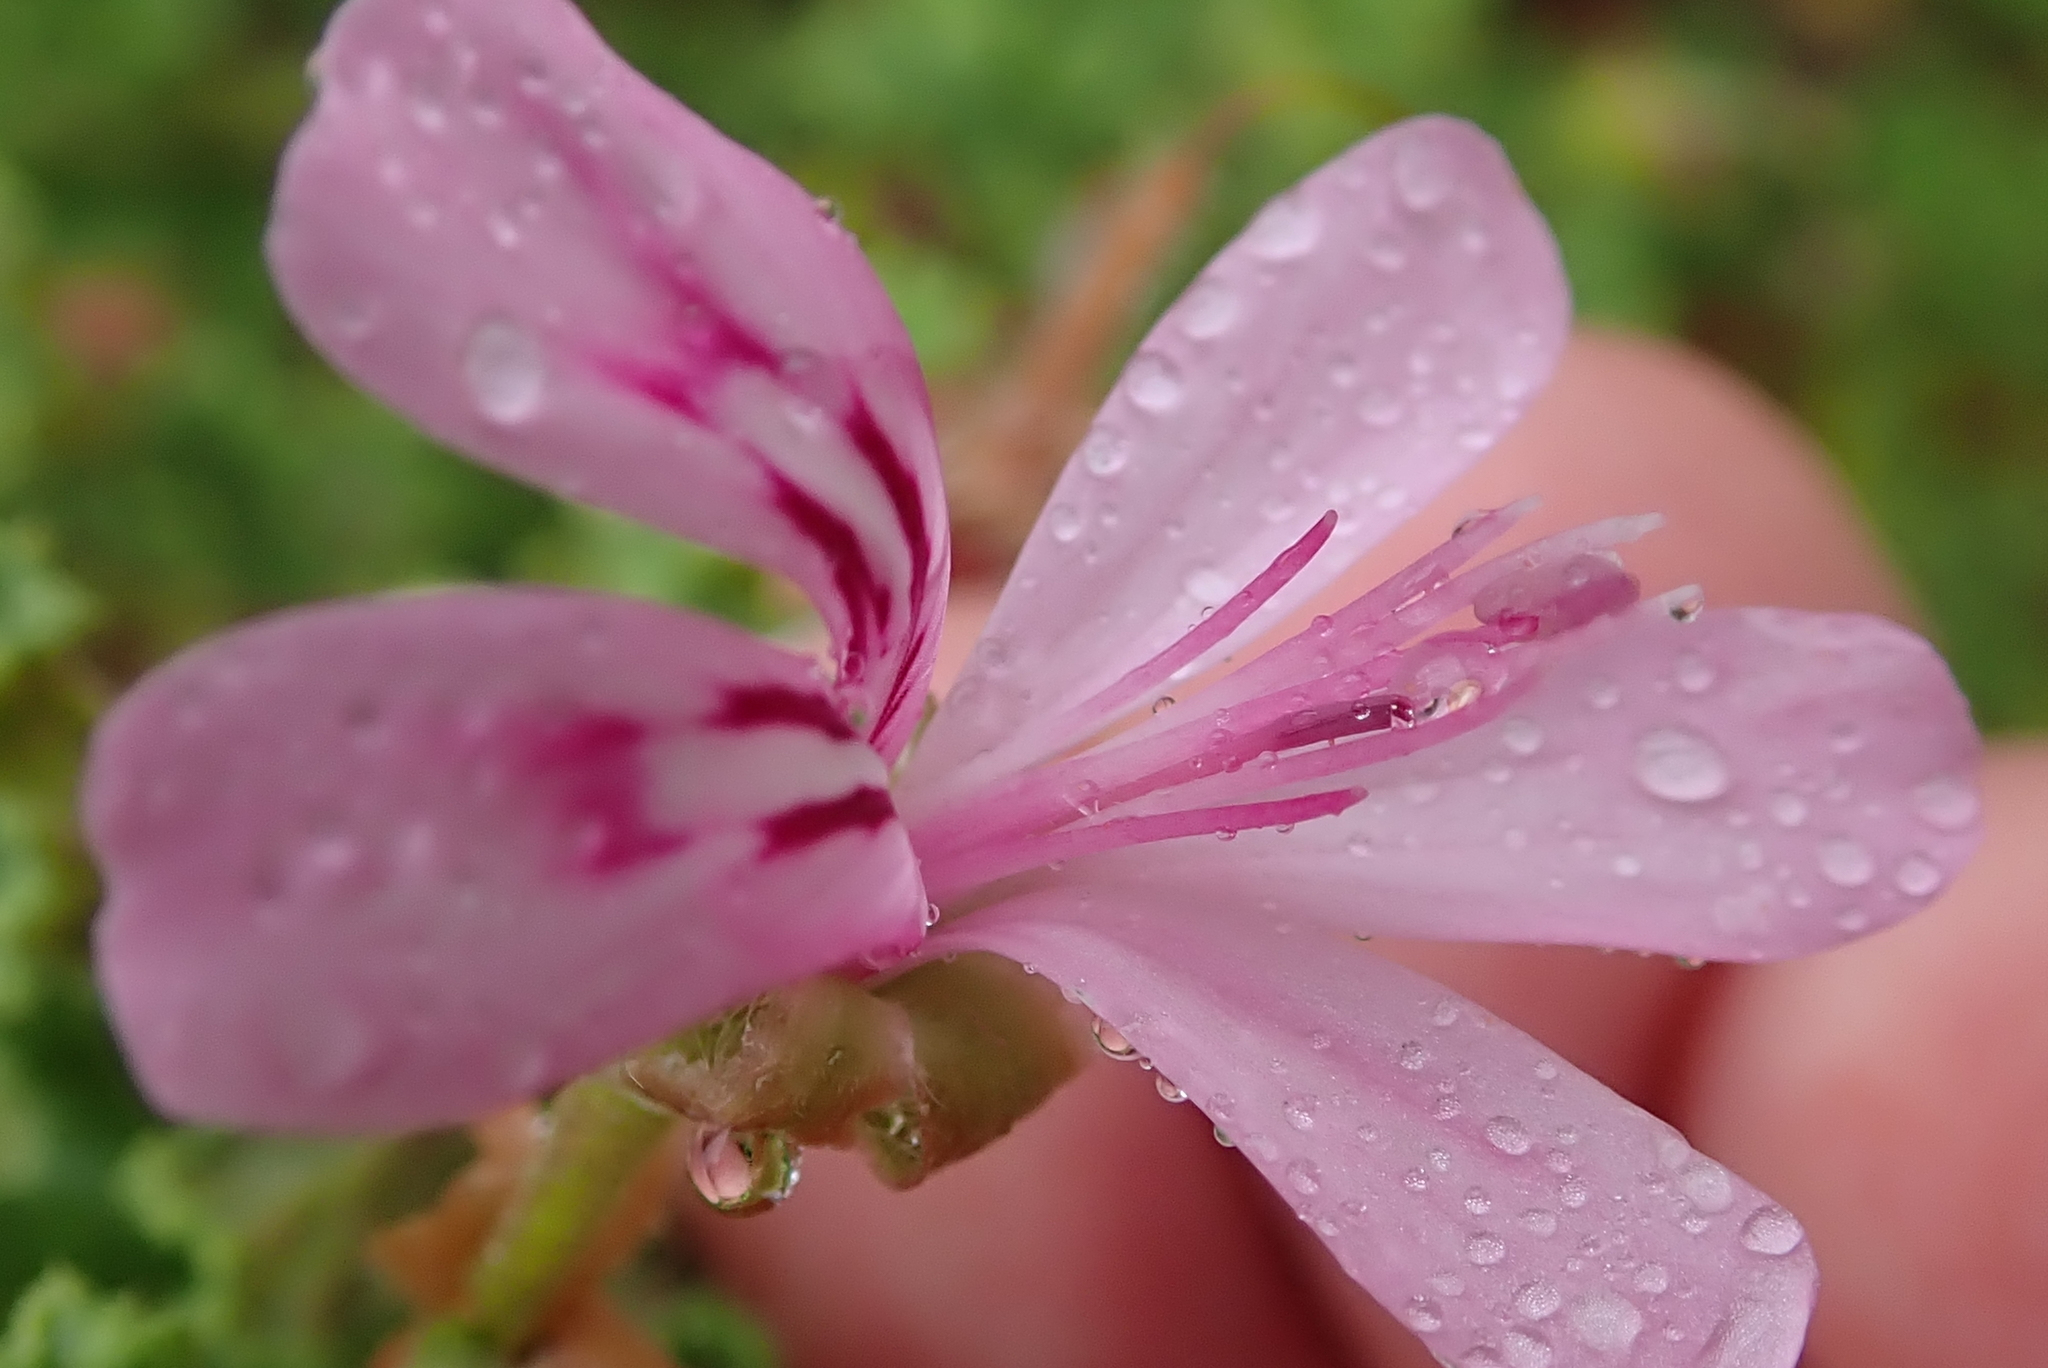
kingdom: Plantae
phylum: Tracheophyta
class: Magnoliopsida
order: Geraniales
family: Geraniaceae
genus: Pelargonium
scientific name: Pelargonium quercifolium
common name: Oakleaf geranium
